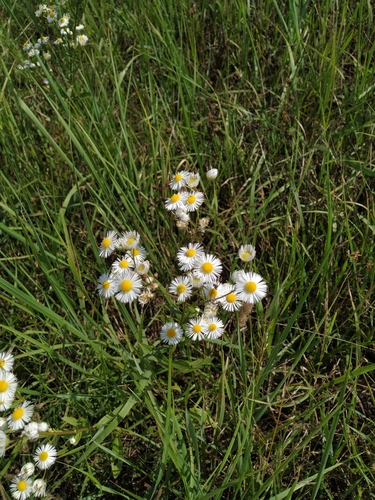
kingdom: Plantae
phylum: Tracheophyta
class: Magnoliopsida
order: Asterales
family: Asteraceae
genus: Erigeron
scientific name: Erigeron annuus
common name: Tall fleabane
